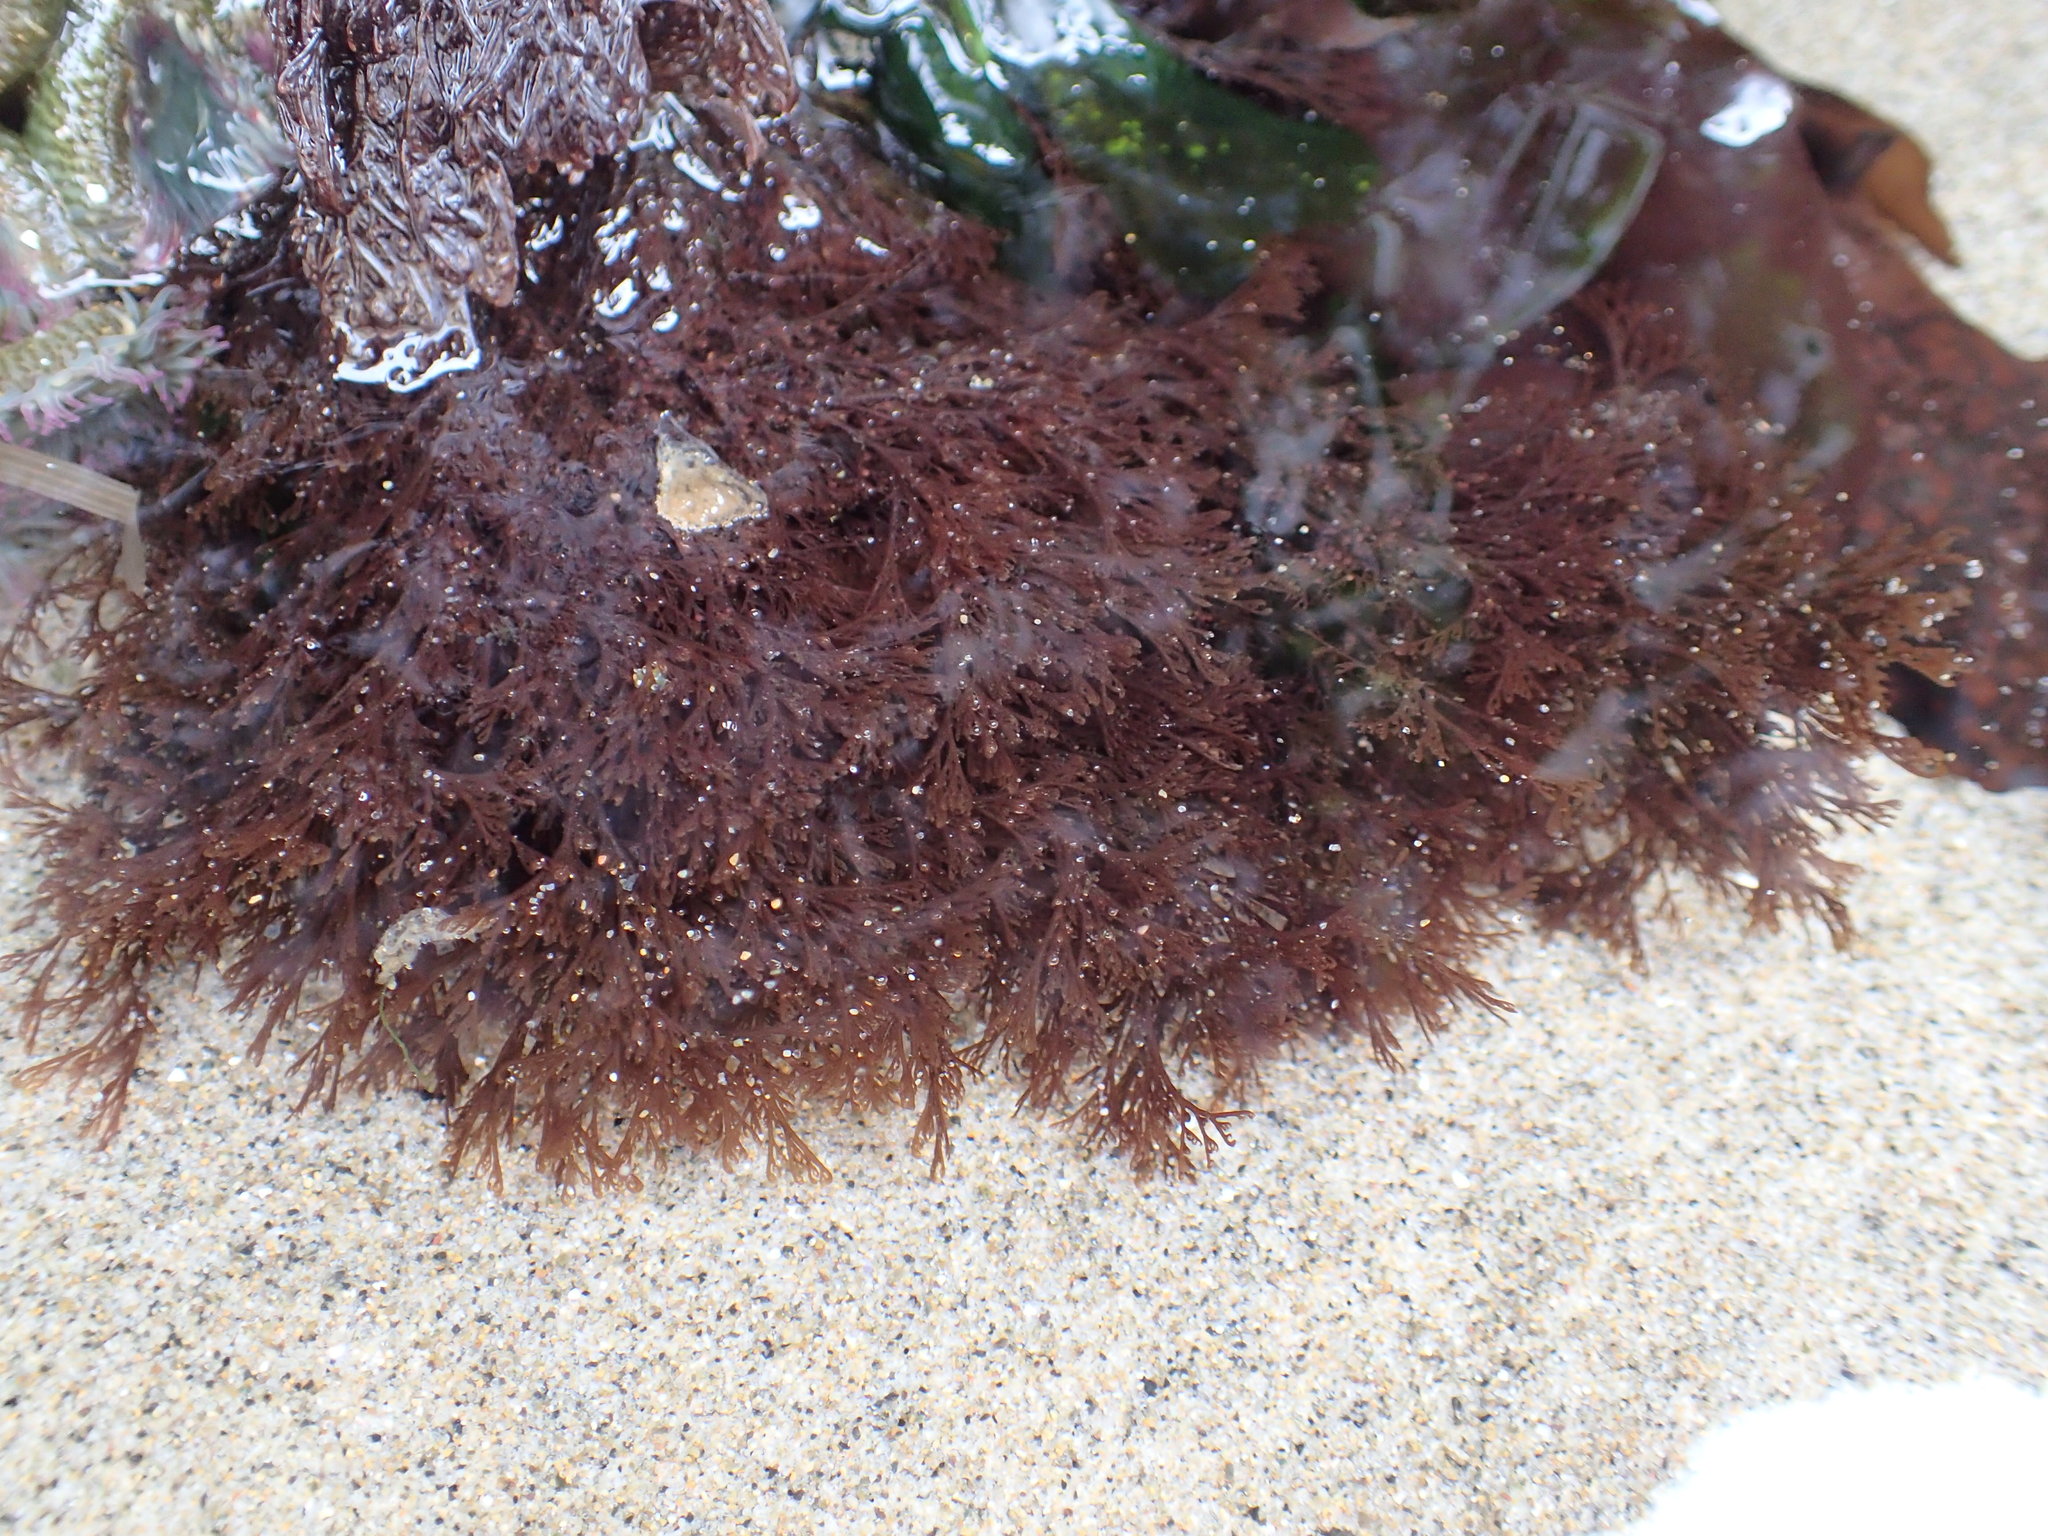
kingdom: Plantae
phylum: Rhodophyta
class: Florideophyceae
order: Ceramiales
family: Ceramiaceae
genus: Microcladia
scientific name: Microcladia borealis
